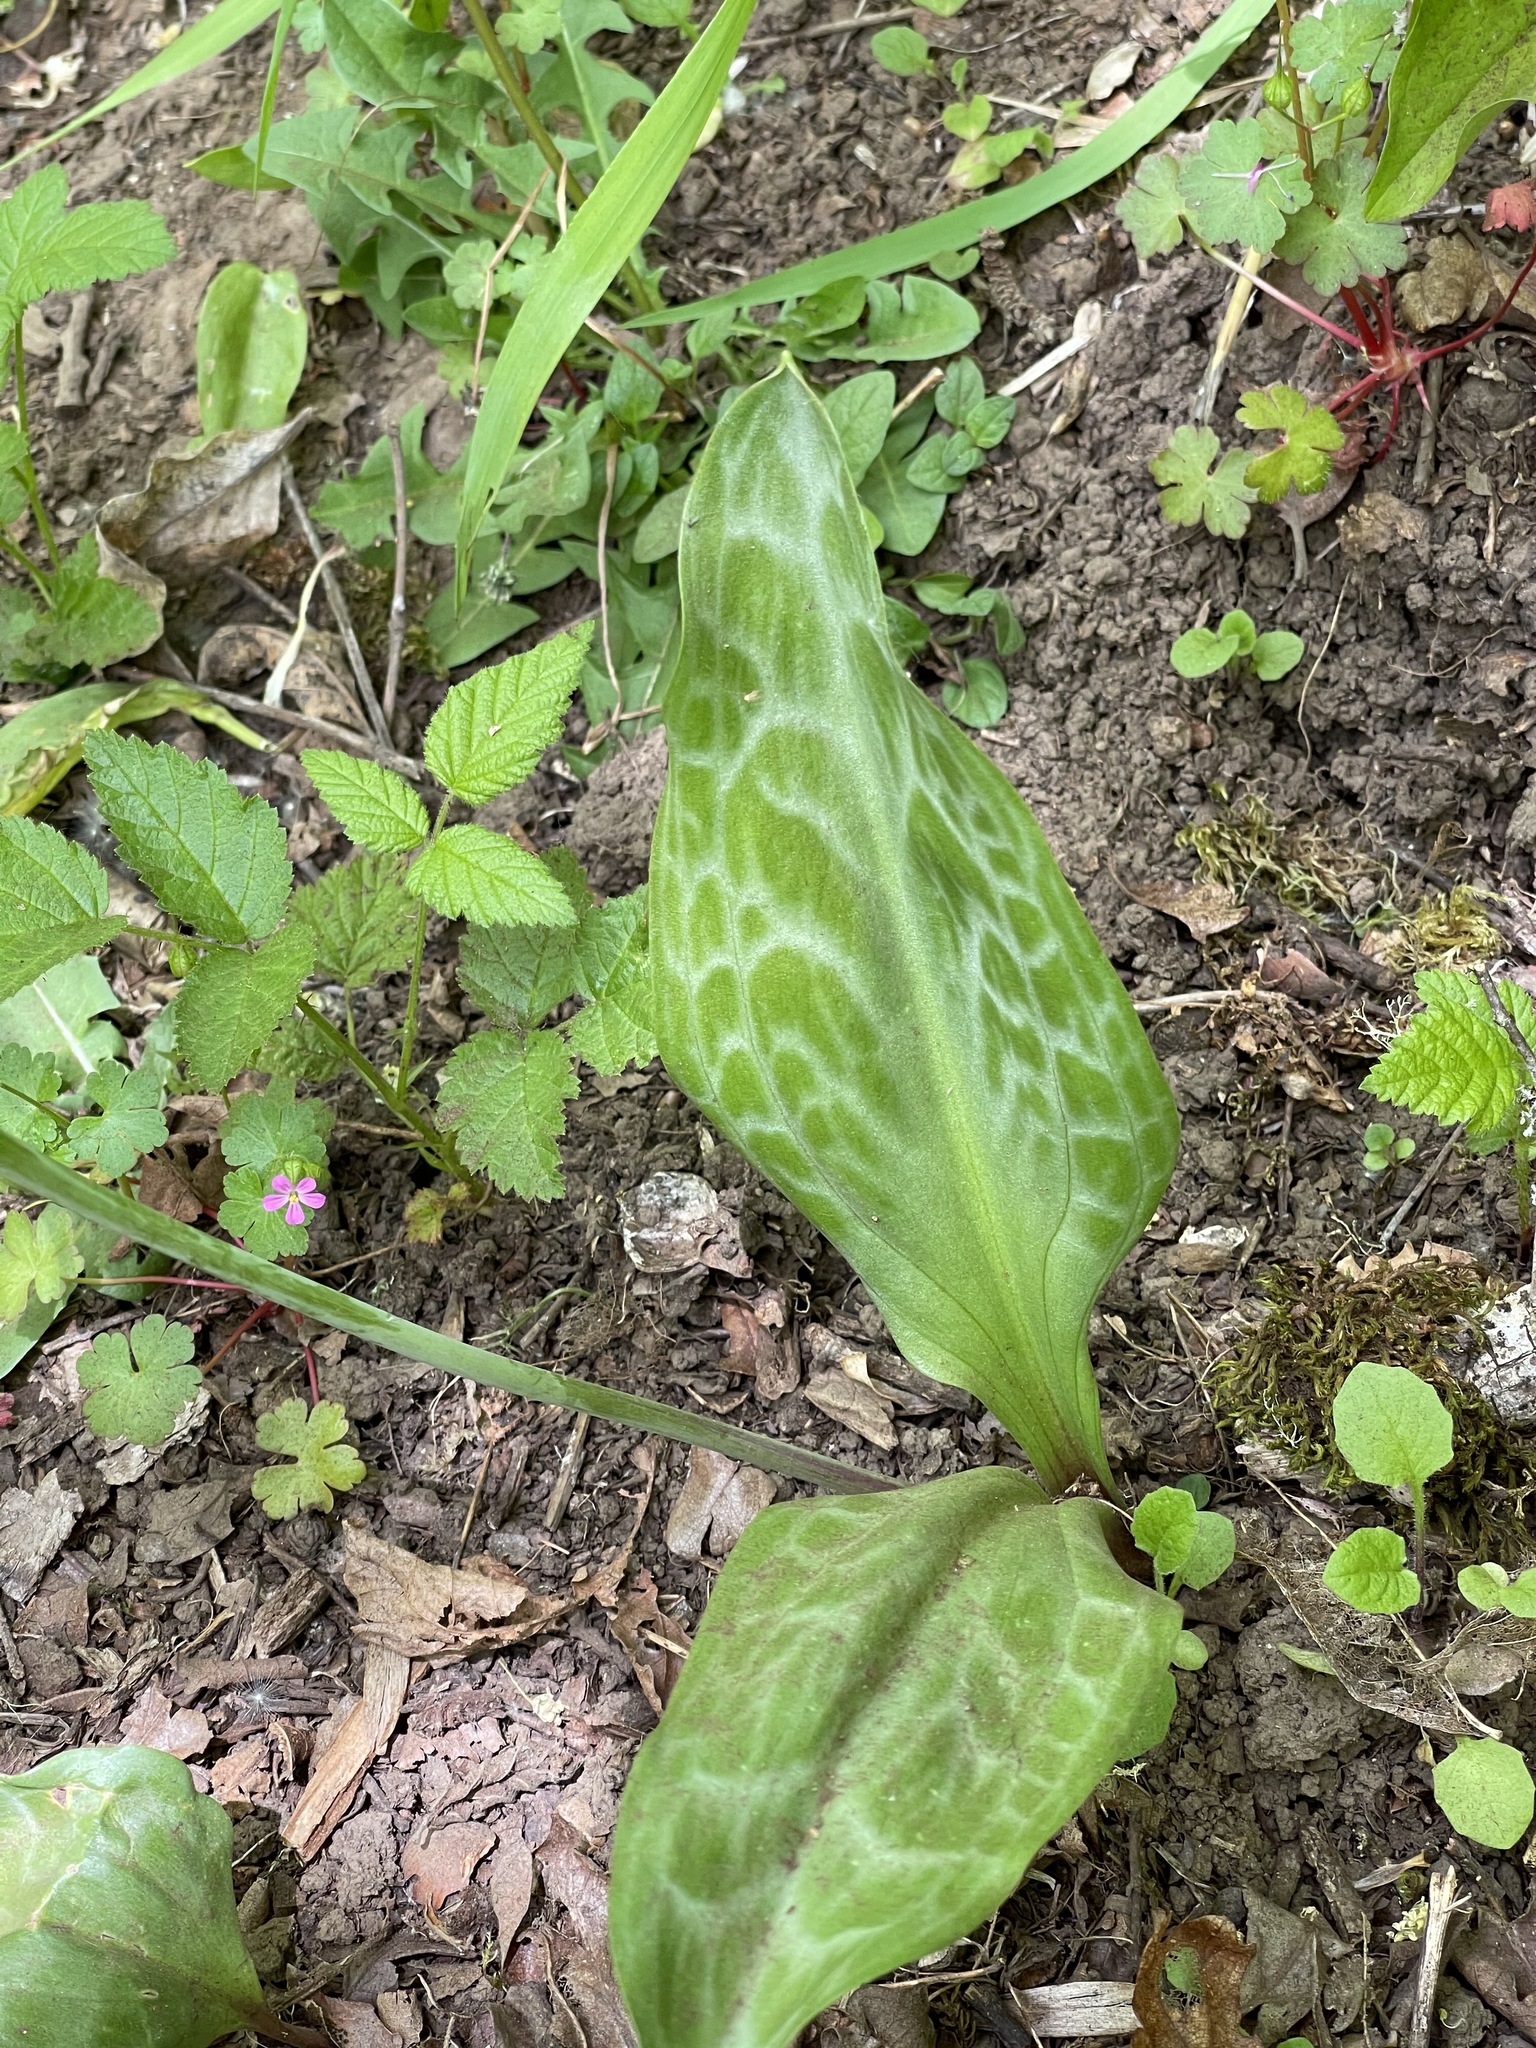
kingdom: Plantae
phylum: Tracheophyta
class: Liliopsida
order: Liliales
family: Liliaceae
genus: Erythronium
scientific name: Erythronium oregonum
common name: Giant adder's-tongue
